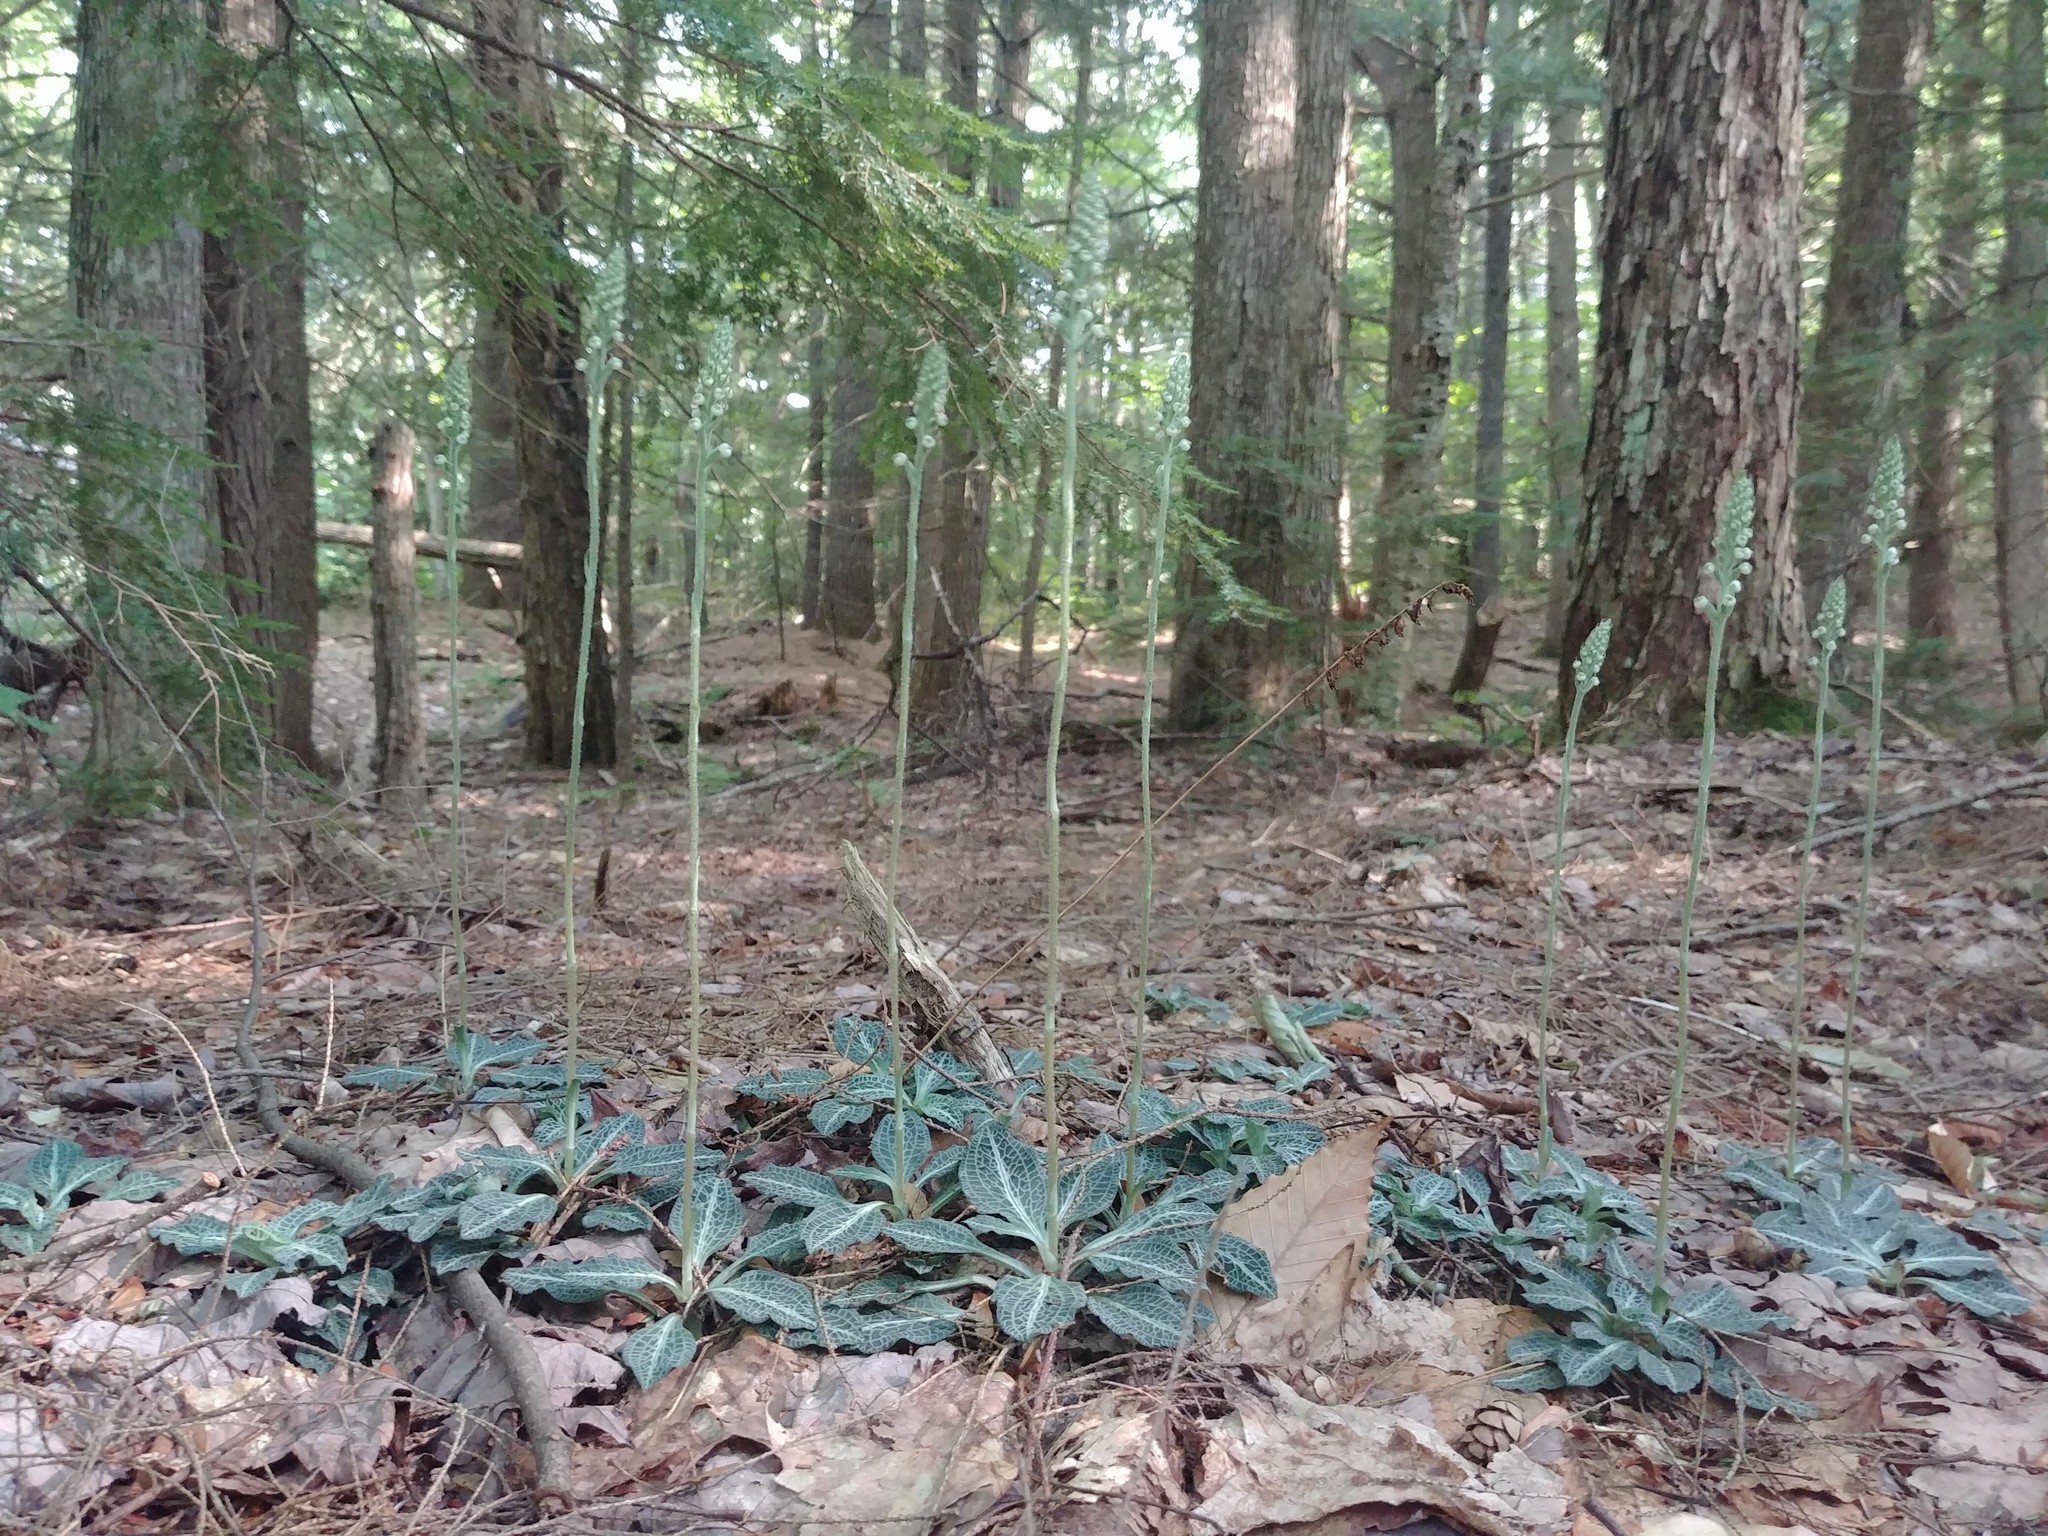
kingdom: Plantae
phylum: Tracheophyta
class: Liliopsida
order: Asparagales
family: Orchidaceae
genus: Goodyera
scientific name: Goodyera pubescens
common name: Downy rattlesnake-plantain
